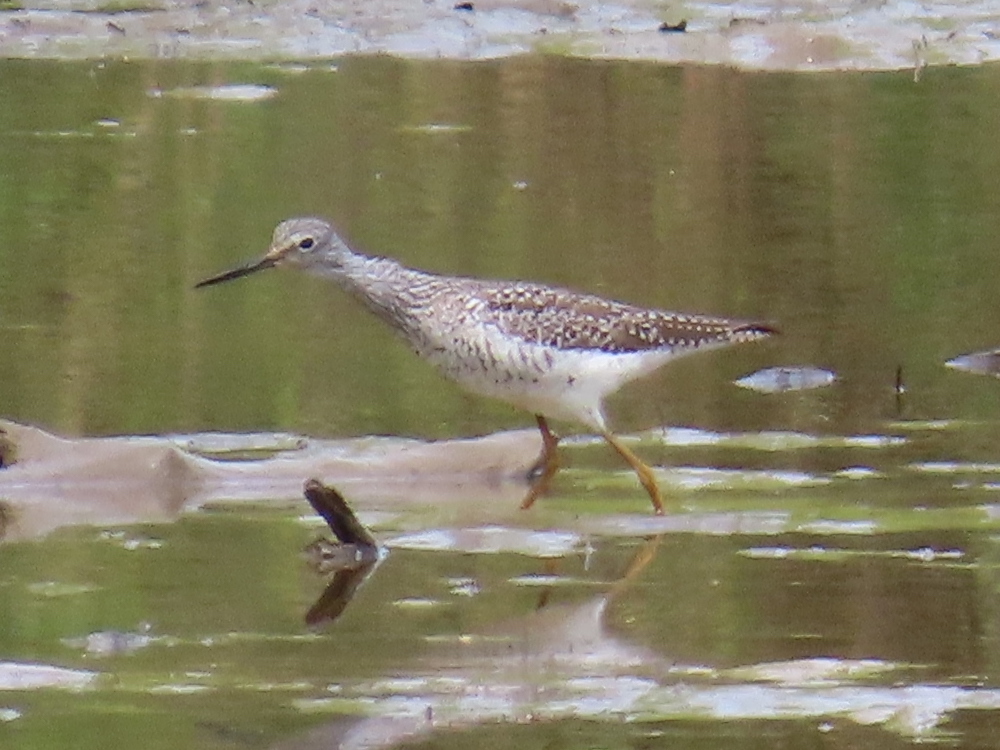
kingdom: Animalia
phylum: Chordata
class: Aves
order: Charadriiformes
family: Scolopacidae
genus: Tringa
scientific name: Tringa melanoleuca
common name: Greater yellowlegs
